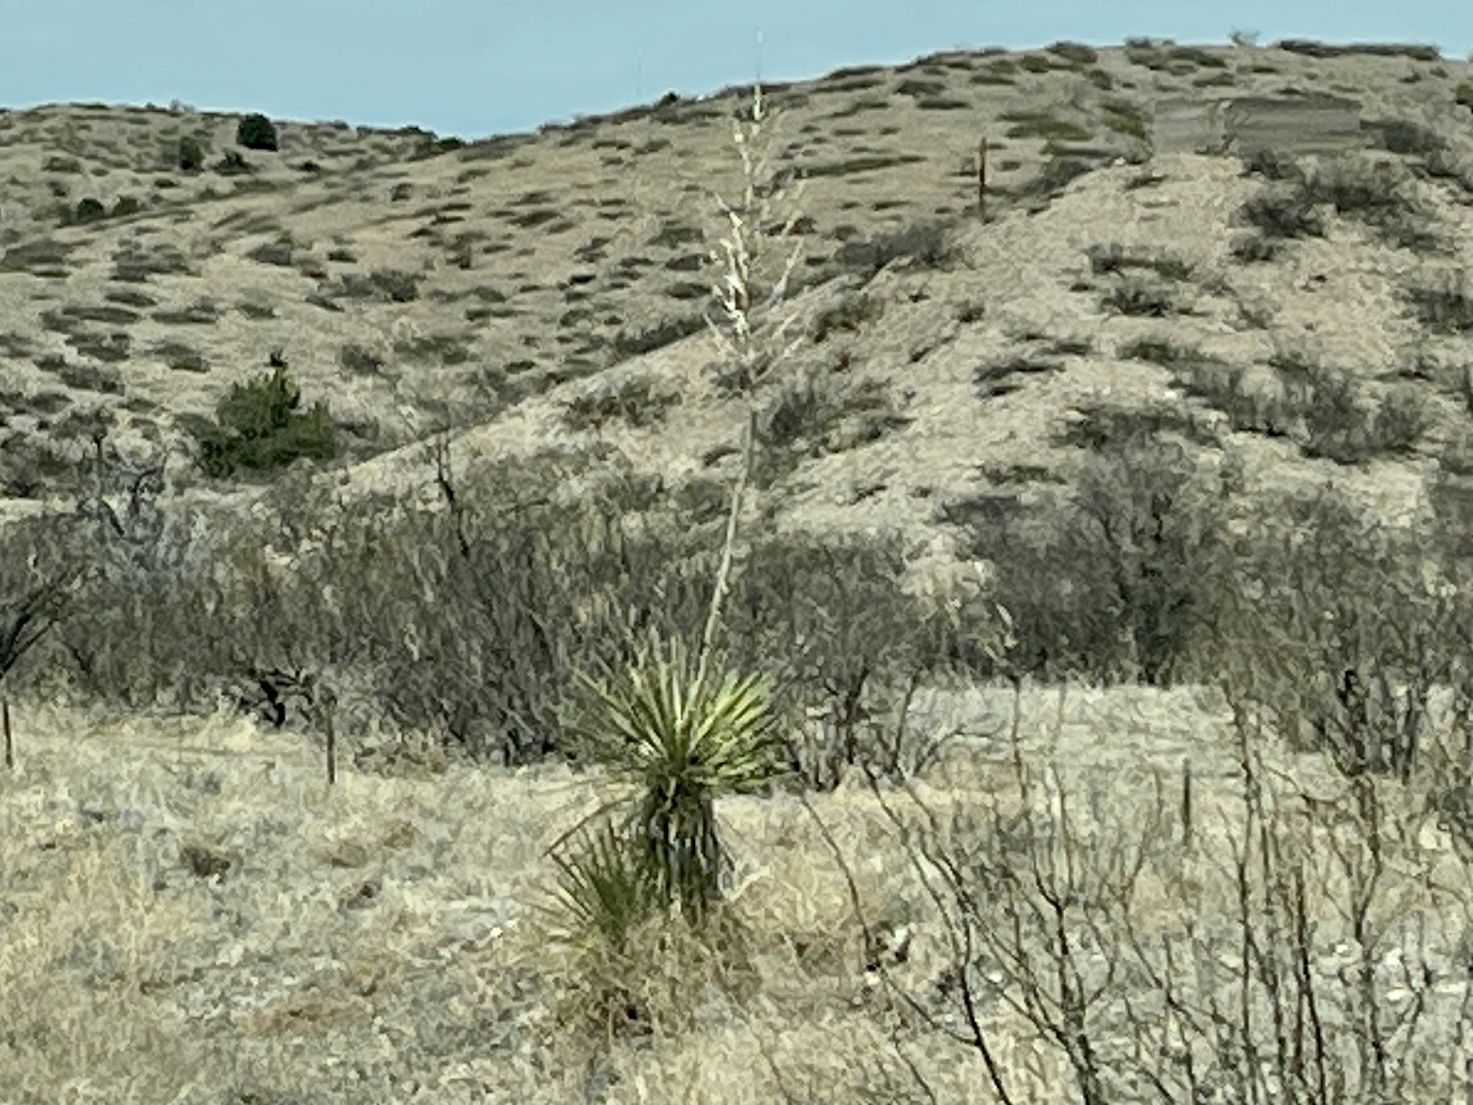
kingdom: Plantae
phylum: Tracheophyta
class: Liliopsida
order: Asparagales
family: Asparagaceae
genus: Yucca
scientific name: Yucca elata
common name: Palmella
